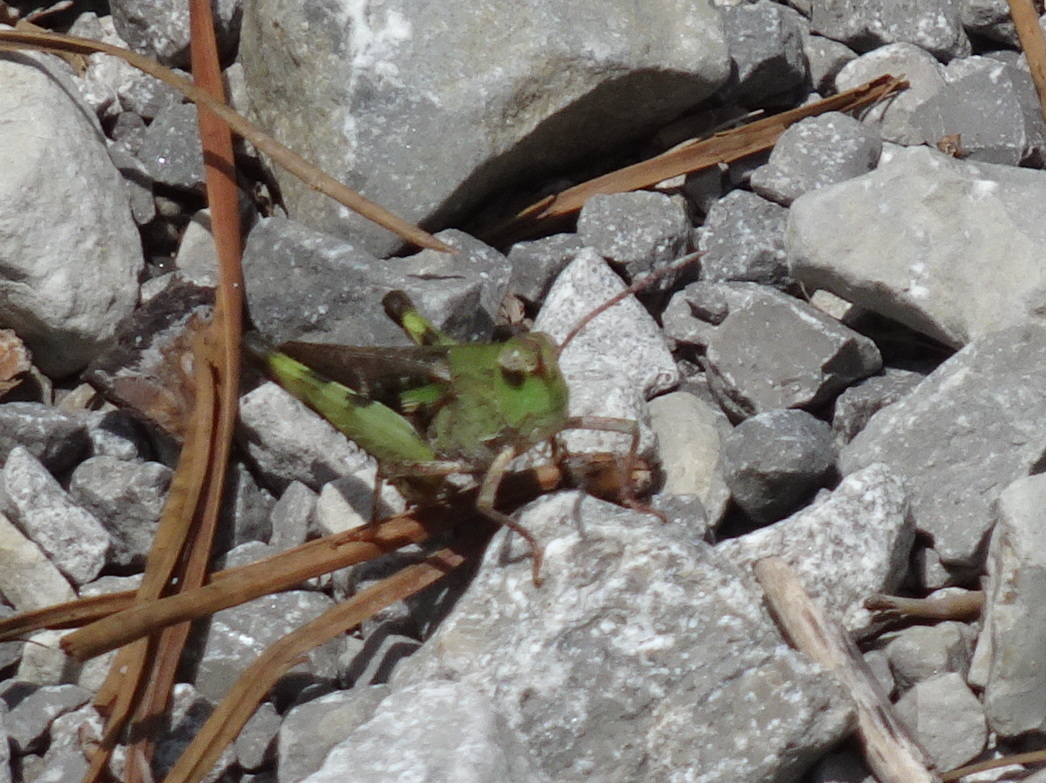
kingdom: Animalia
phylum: Arthropoda
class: Insecta
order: Orthoptera
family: Acrididae
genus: Chortophaga
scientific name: Chortophaga viridifasciata
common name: Green-striped grasshopper
